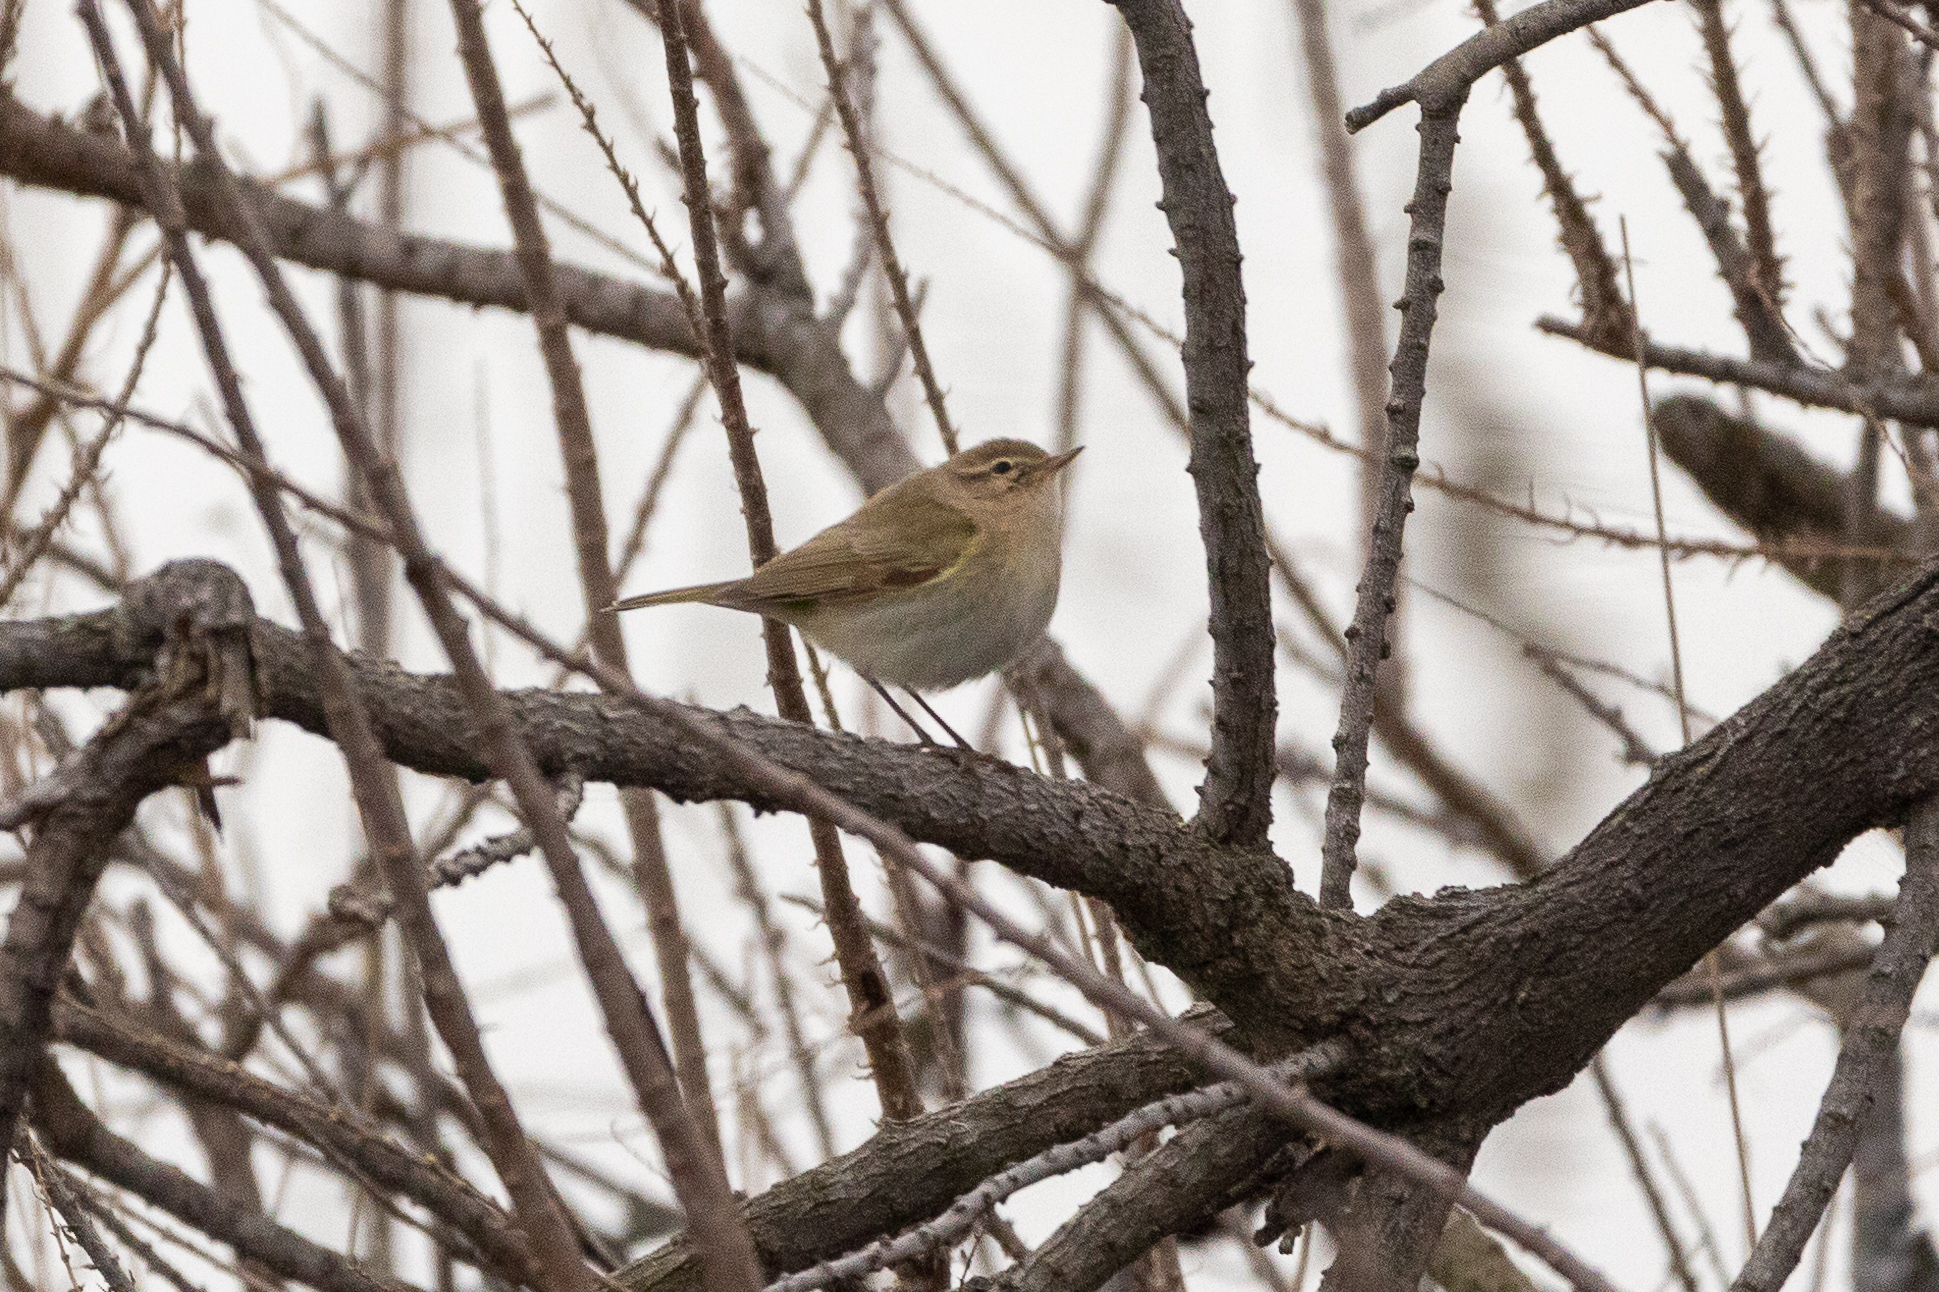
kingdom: Animalia
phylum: Chordata
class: Aves
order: Passeriformes
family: Phylloscopidae
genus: Phylloscopus
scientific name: Phylloscopus collybita
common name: Common chiffchaff
